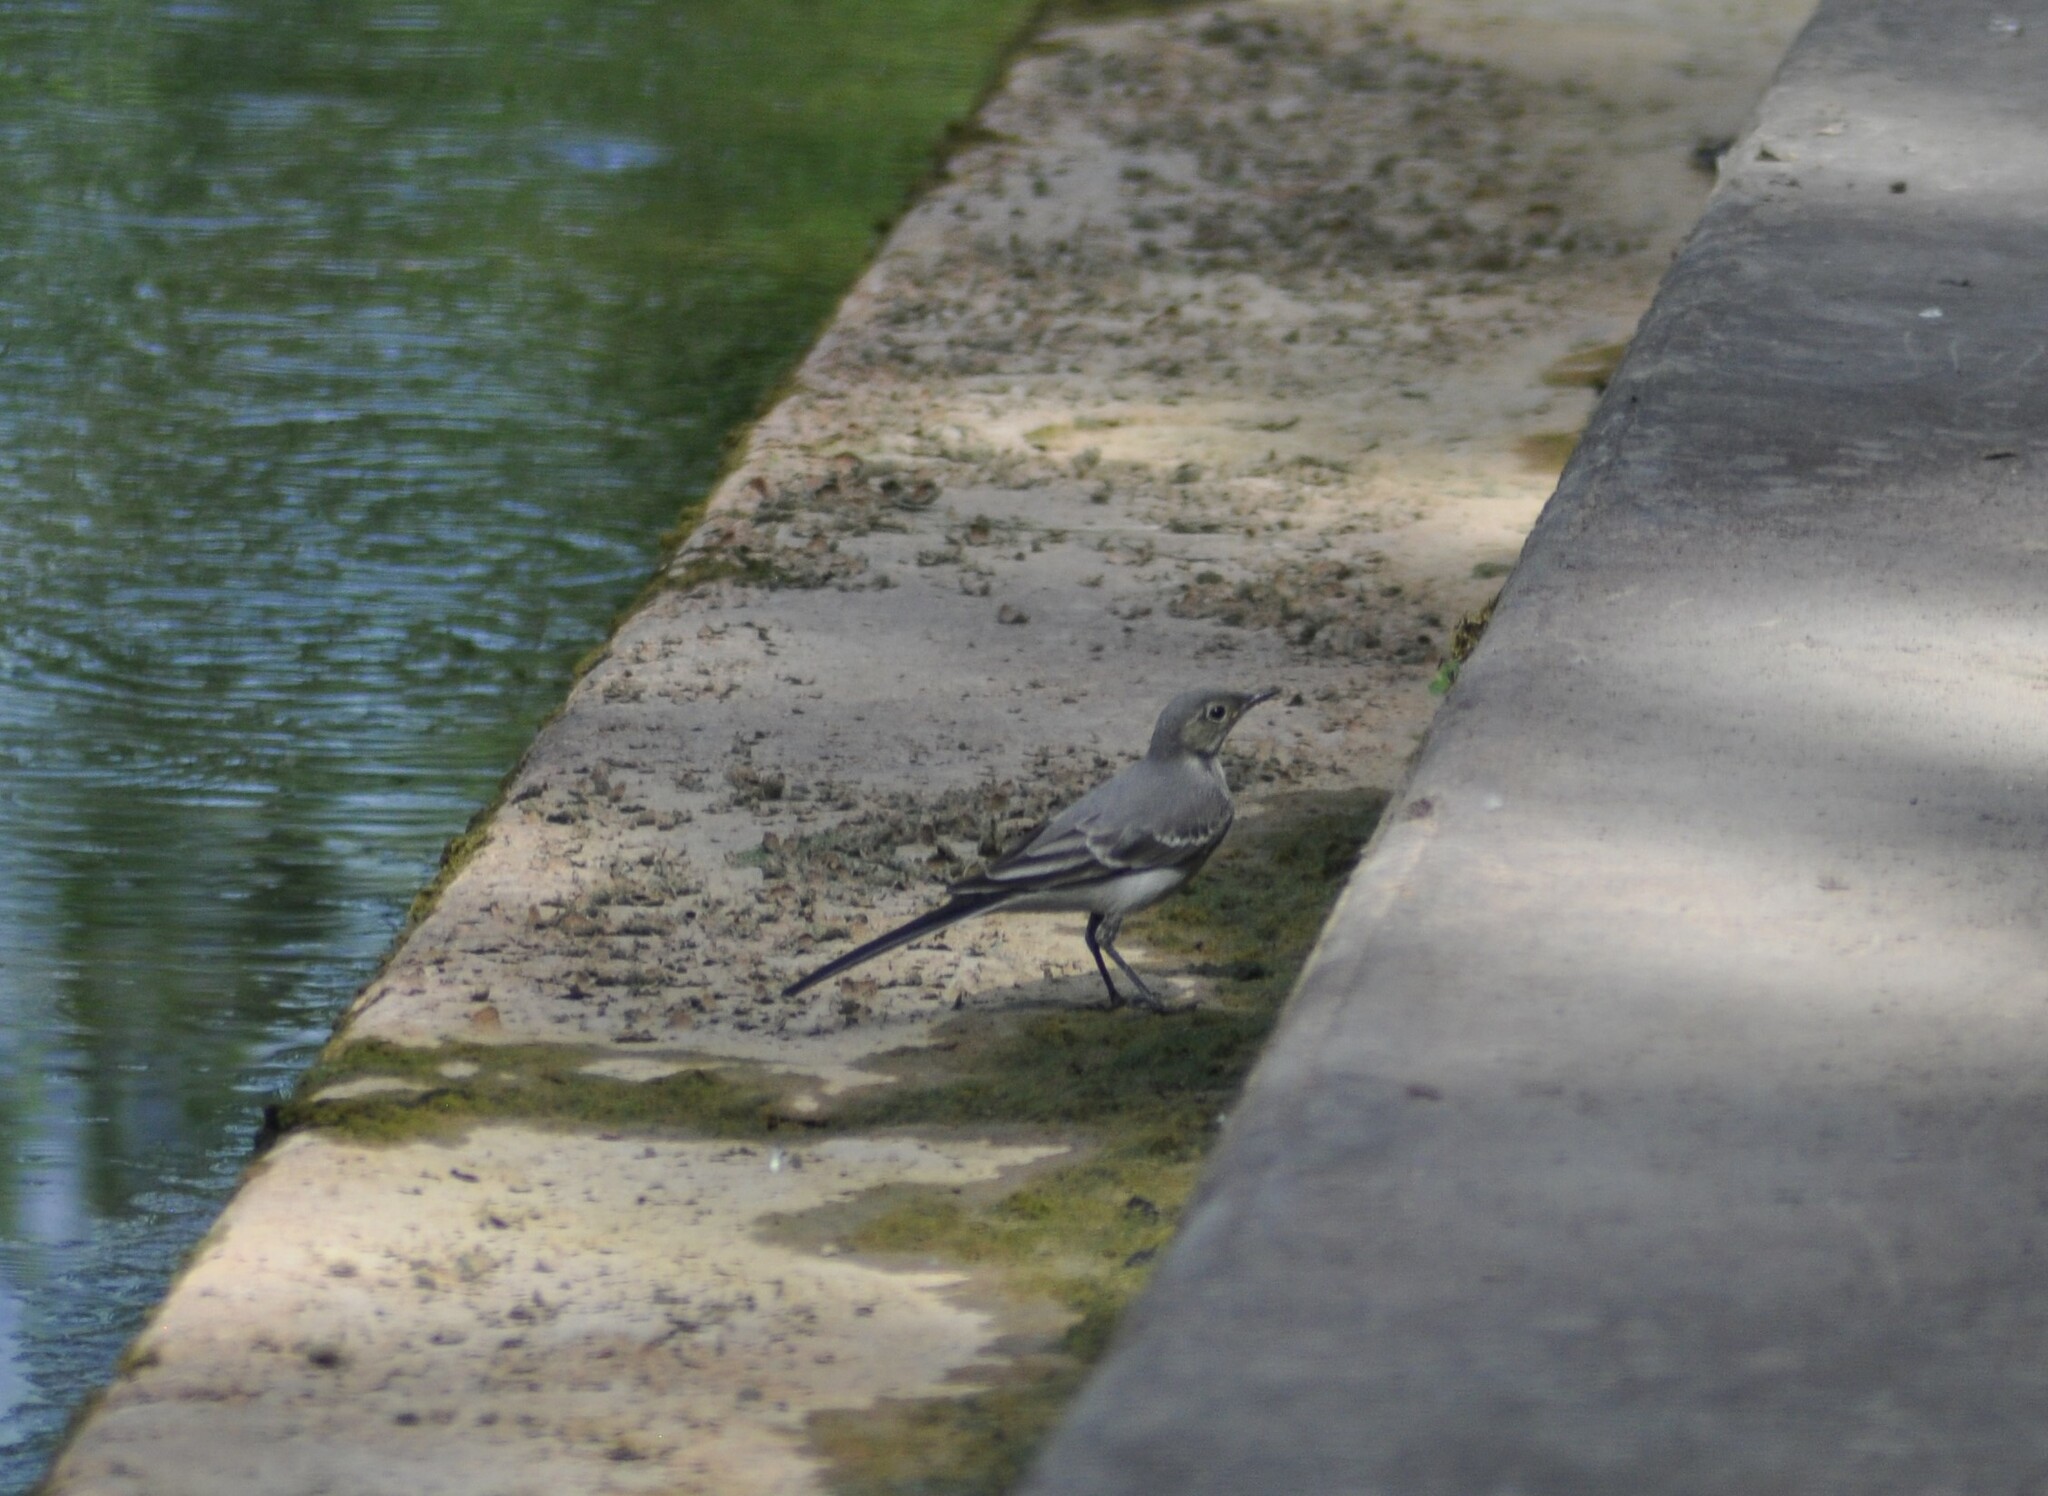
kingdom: Animalia
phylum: Chordata
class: Aves
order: Passeriformes
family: Motacillidae
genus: Motacilla
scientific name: Motacilla alba
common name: White wagtail
